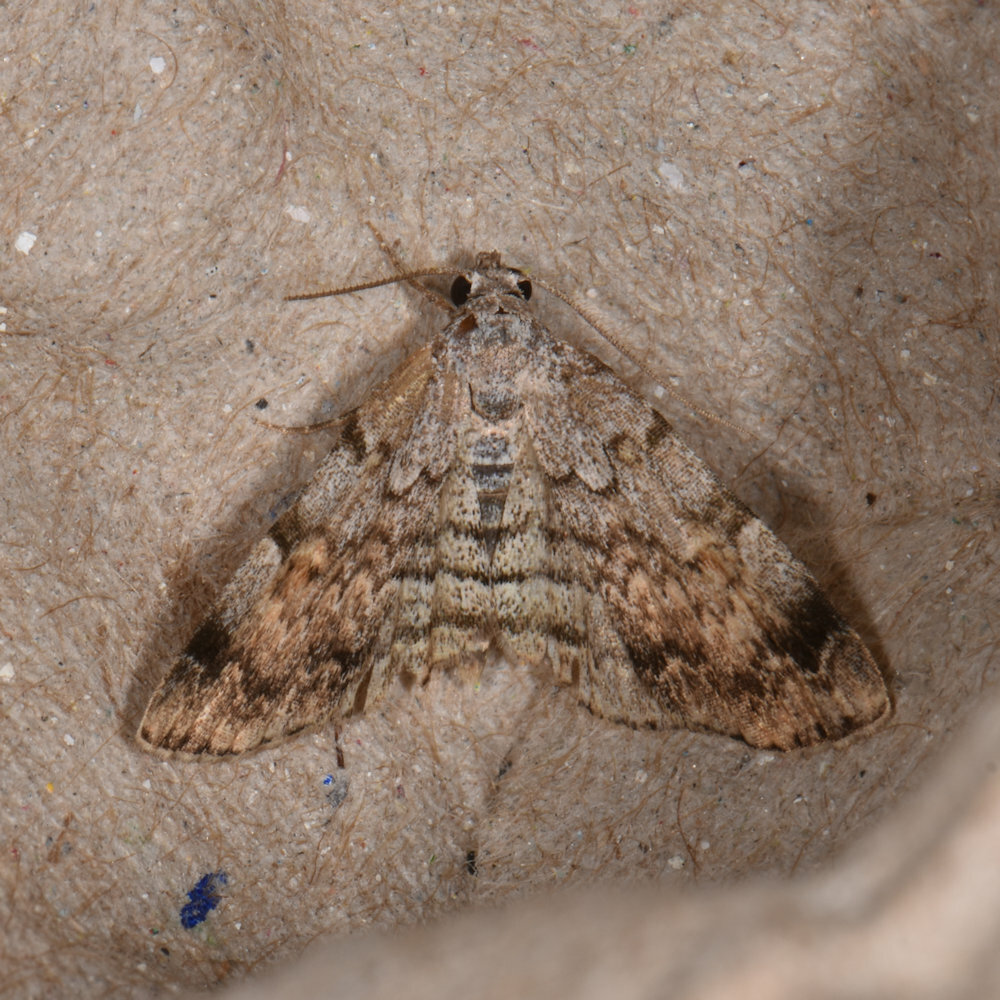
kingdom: Animalia
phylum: Arthropoda
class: Insecta
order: Lepidoptera
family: Erebidae
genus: Idia
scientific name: Idia americalis
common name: American idia moth
